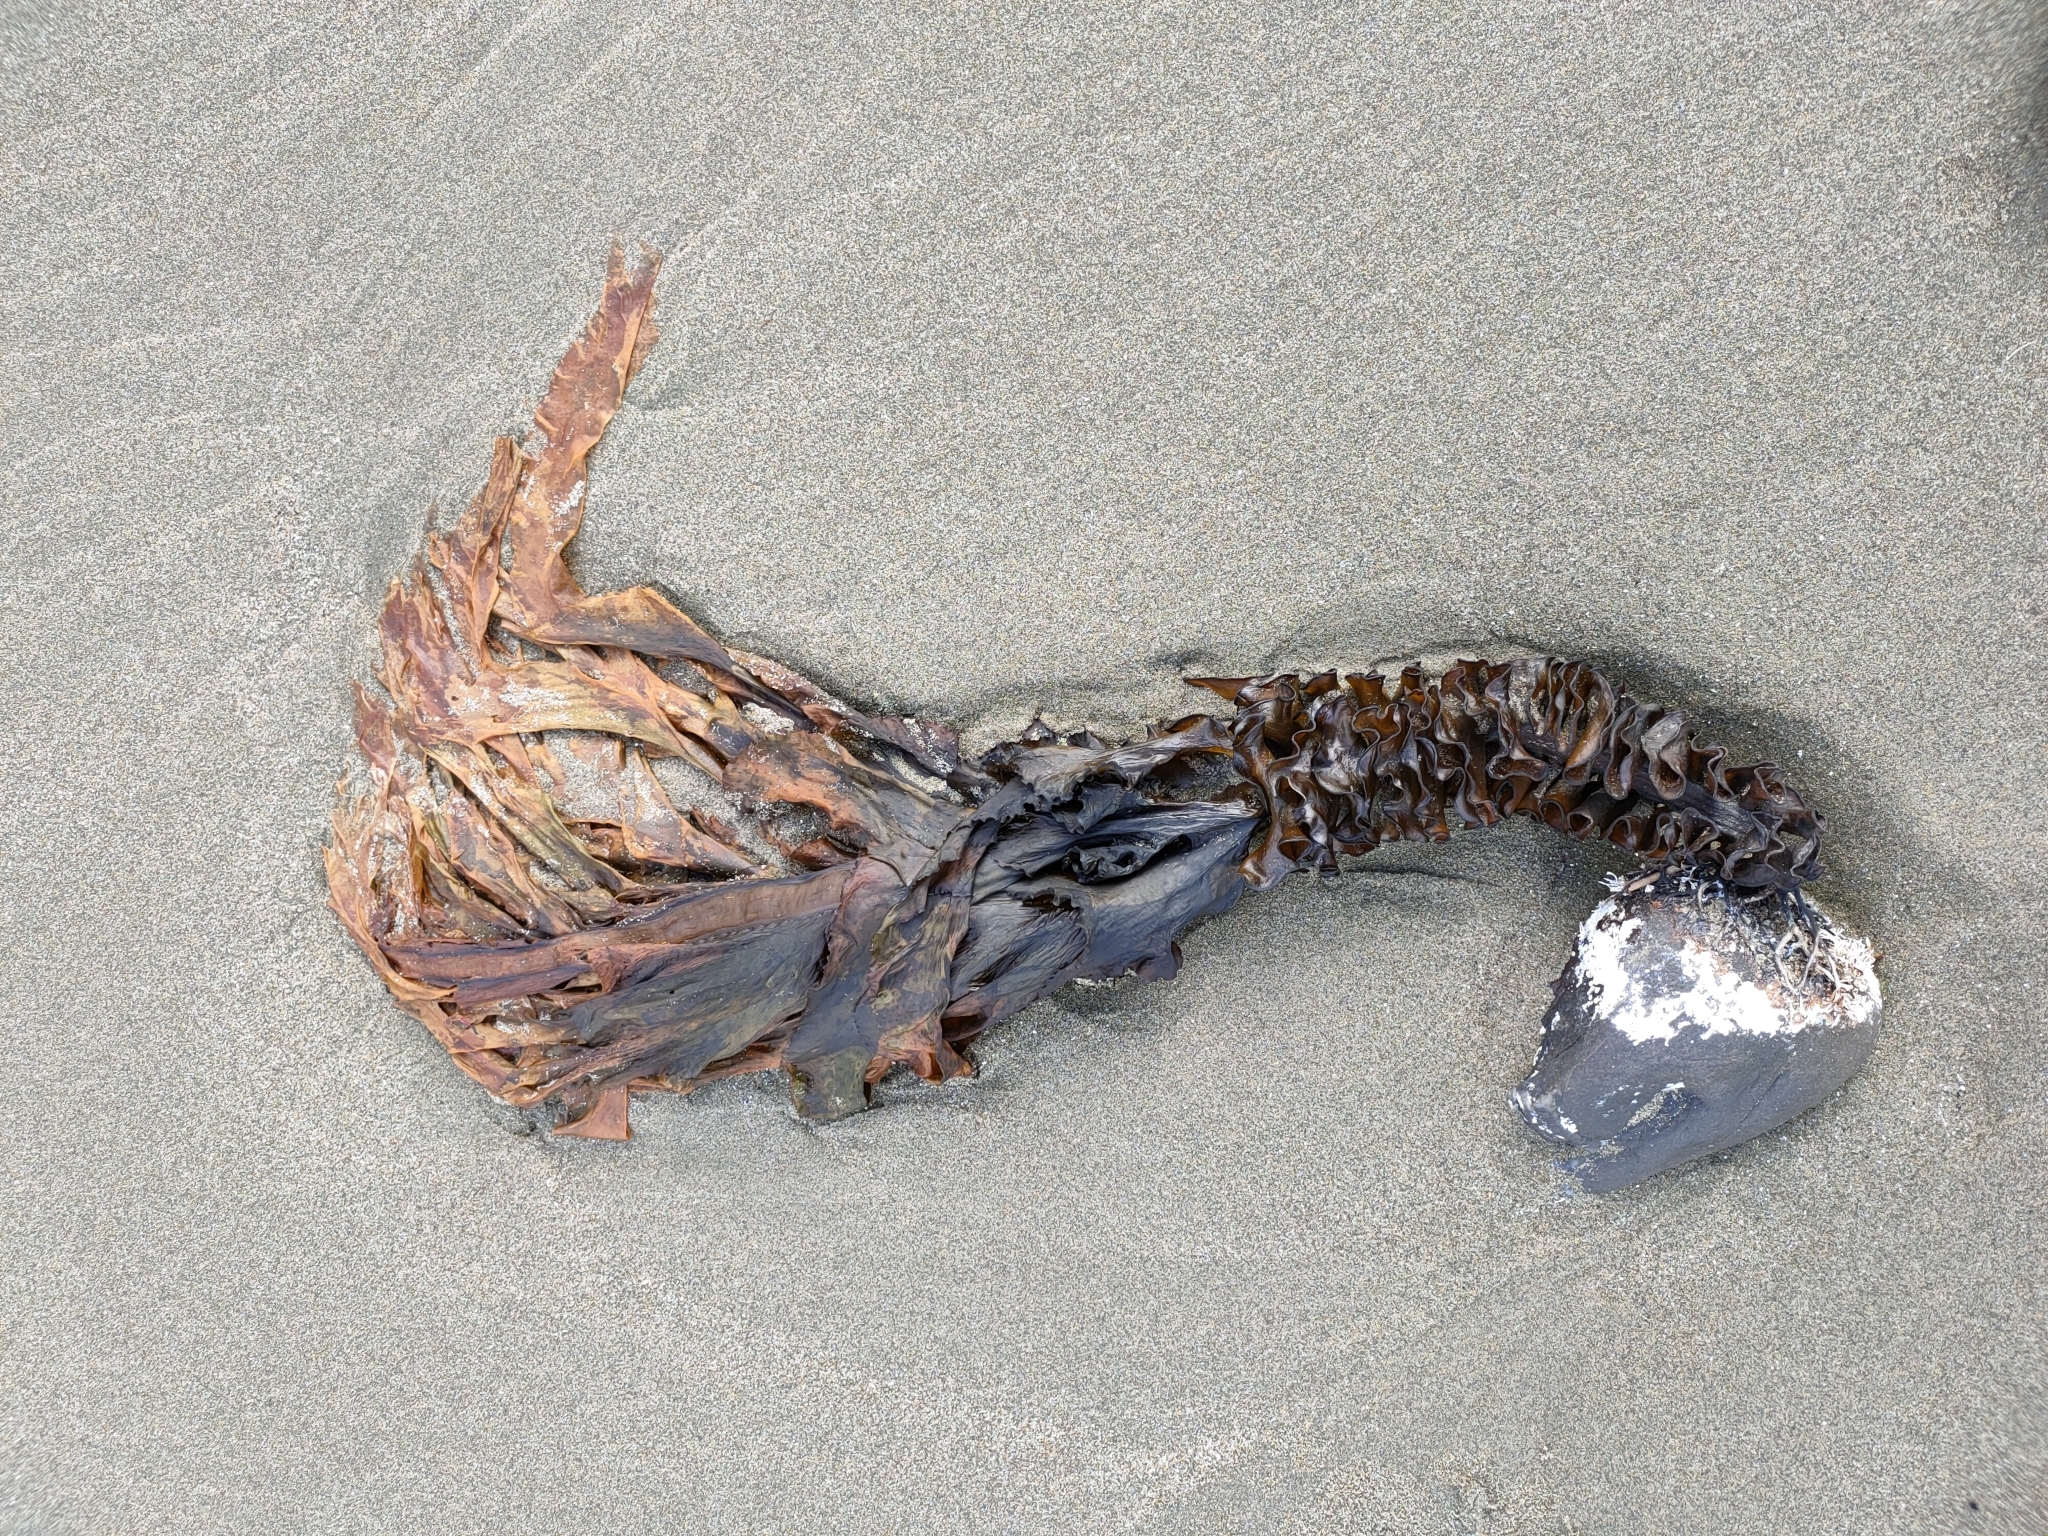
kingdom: Chromista
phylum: Ochrophyta
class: Phaeophyceae
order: Laminariales
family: Alariaceae
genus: Undaria
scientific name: Undaria pinnatifida
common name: Asian kelp
